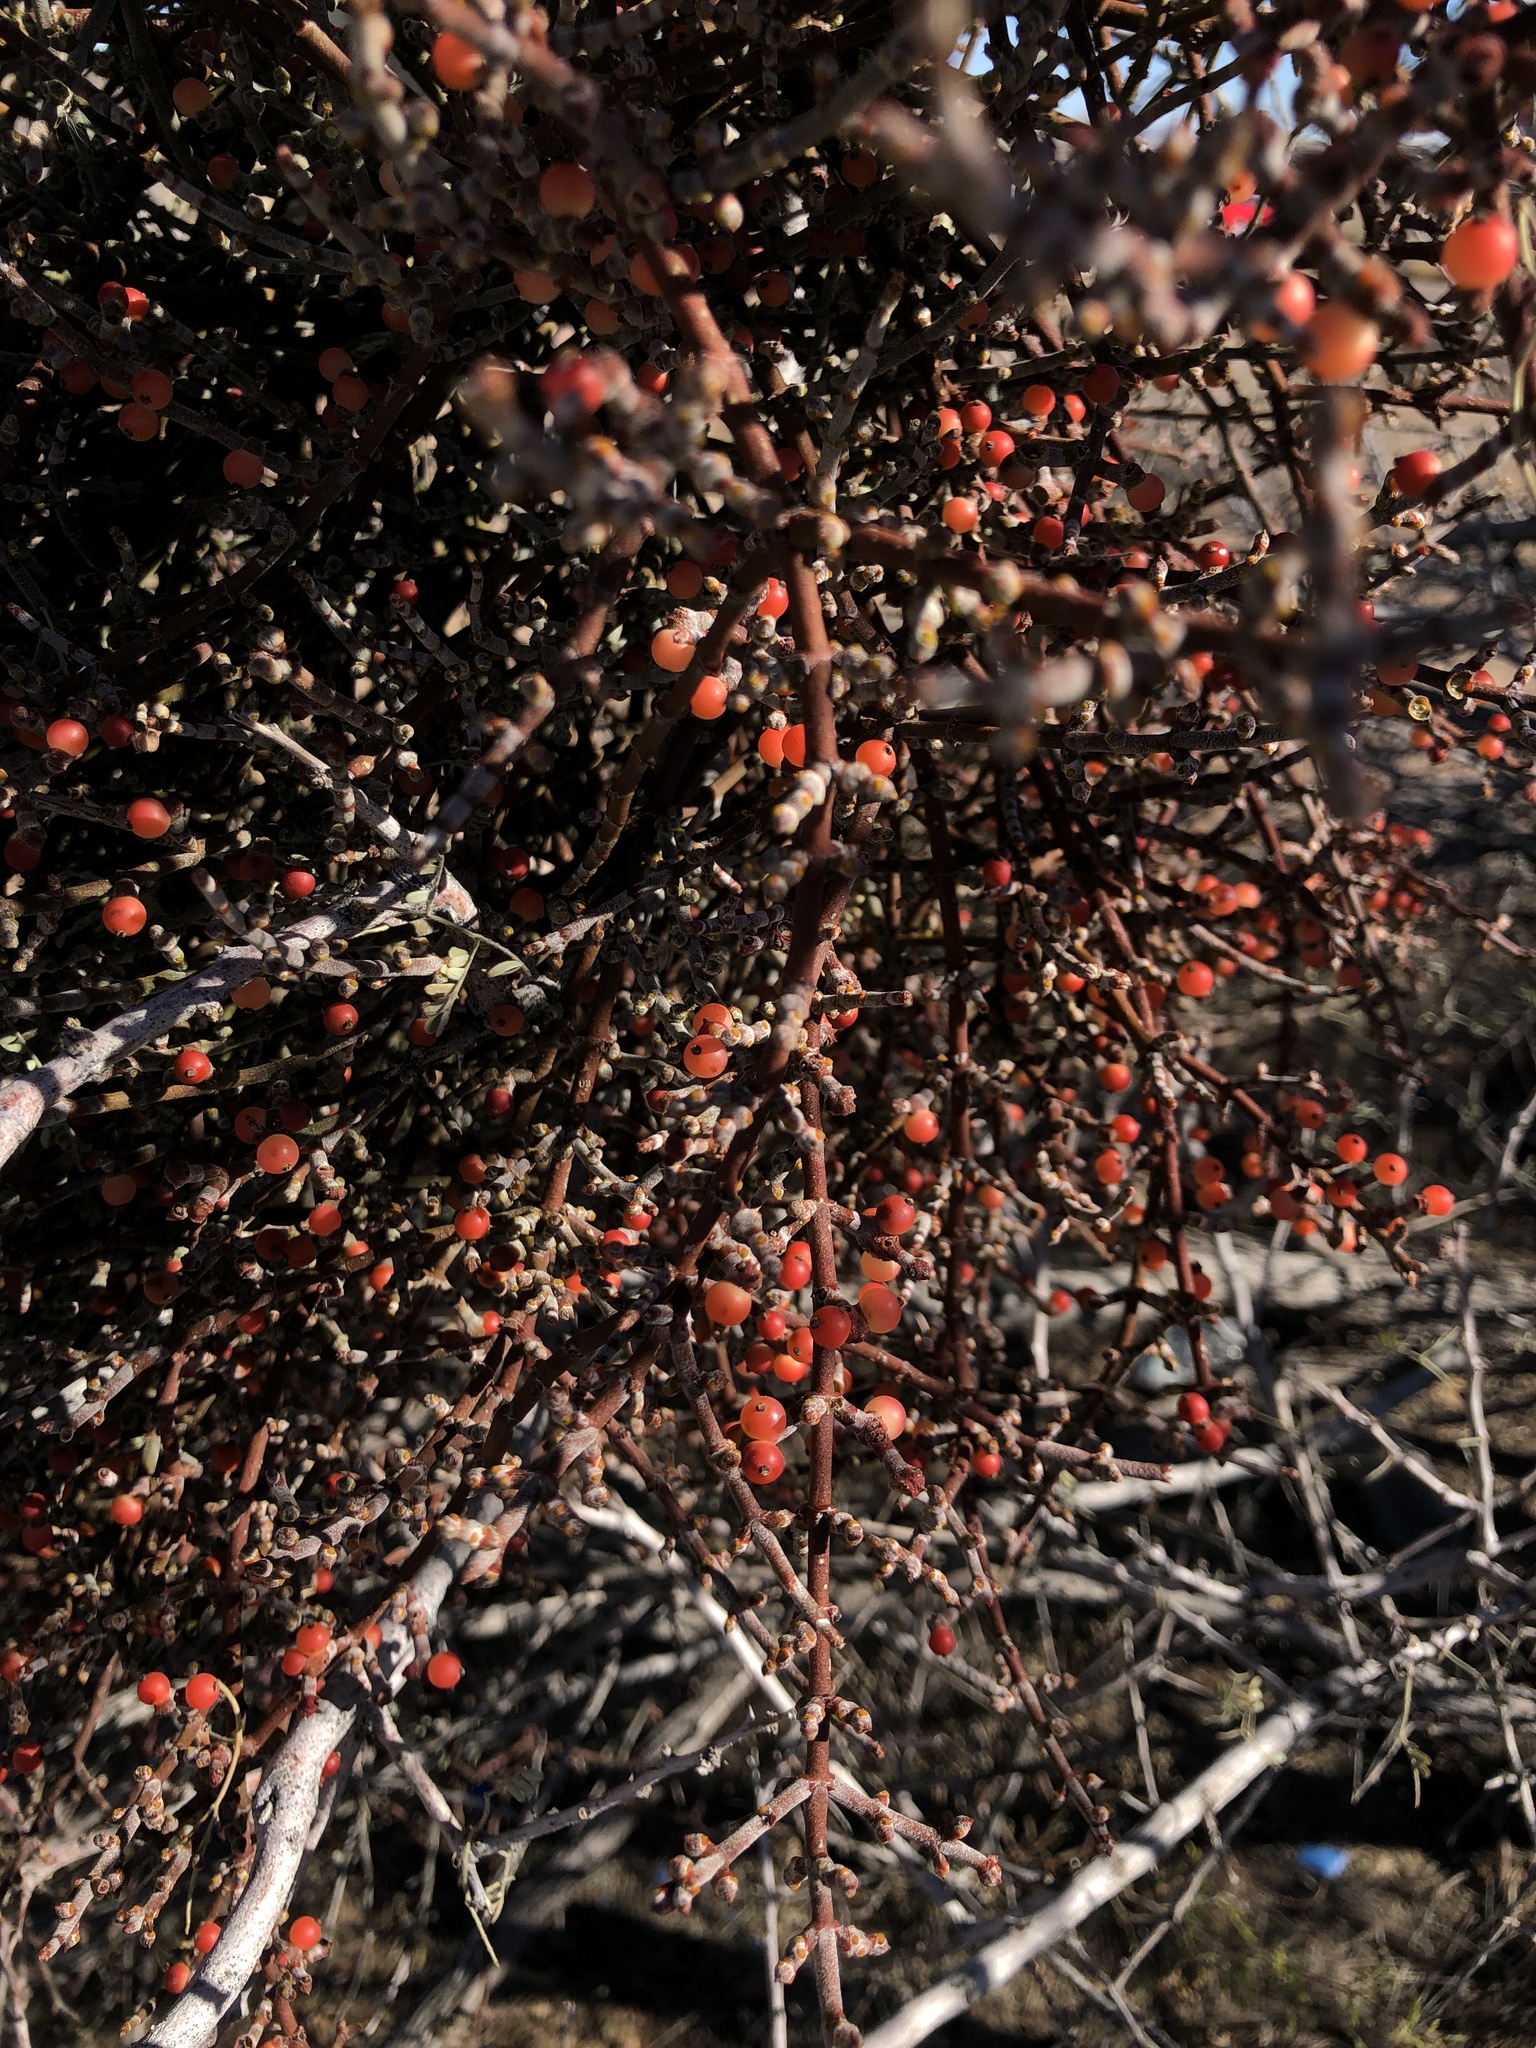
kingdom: Plantae
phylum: Tracheophyta
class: Magnoliopsida
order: Santalales
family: Viscaceae
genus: Phoradendron
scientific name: Phoradendron californicum
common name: Acacia mistletoe
